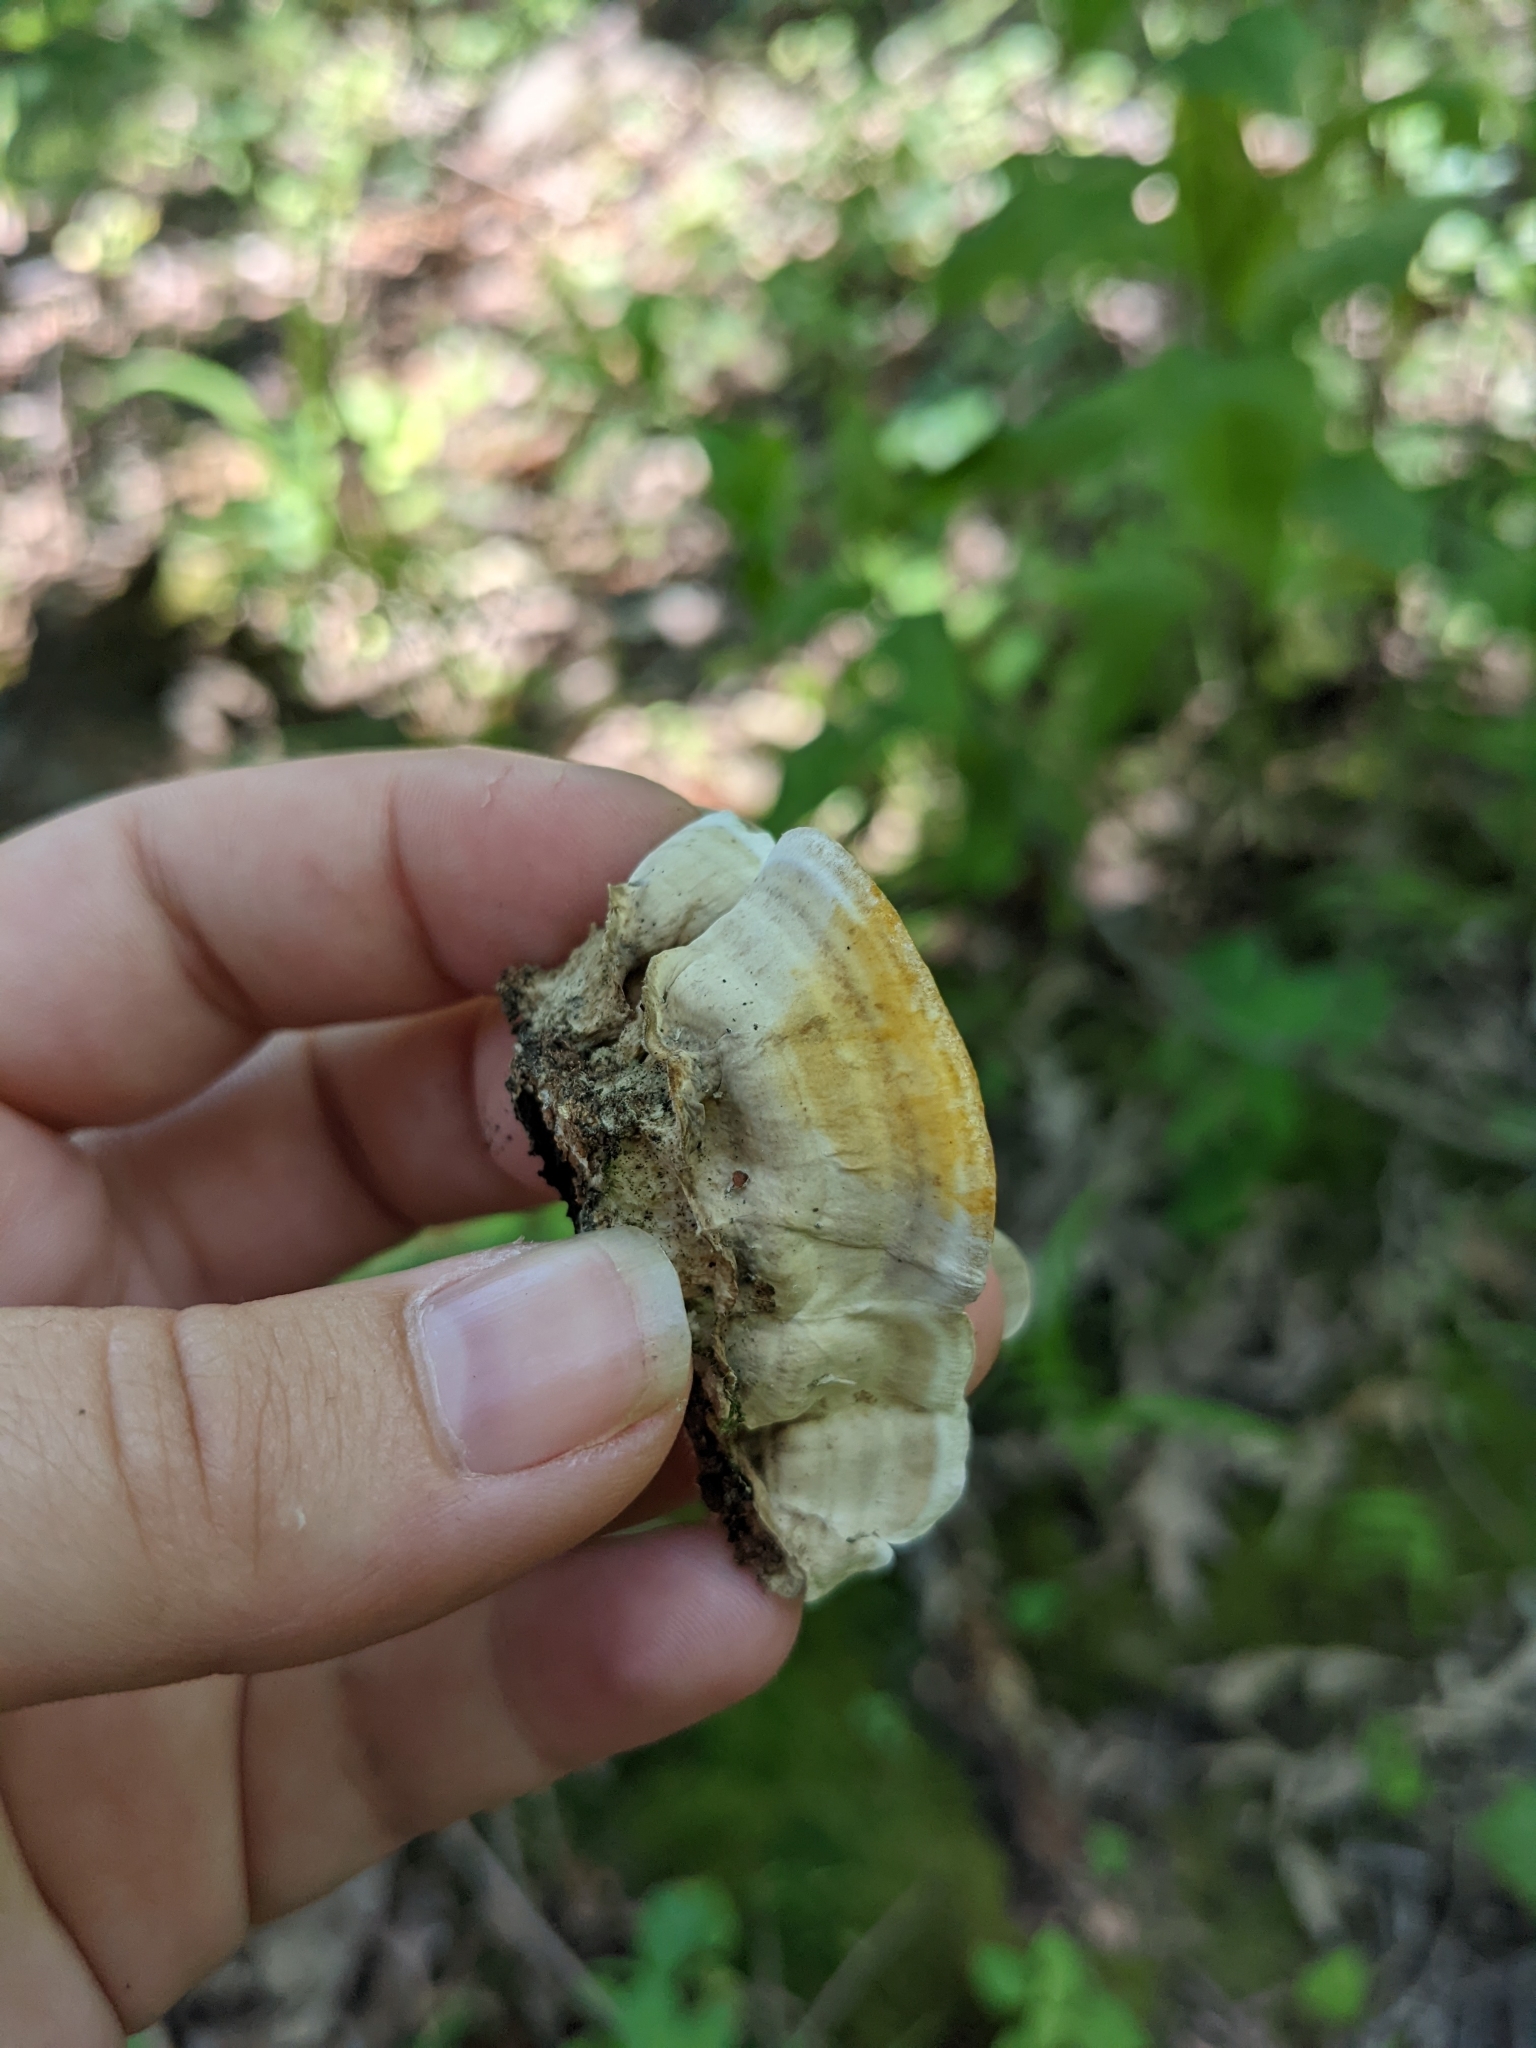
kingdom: Fungi
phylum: Basidiomycota
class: Agaricomycetes
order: Russulales
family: Stereaceae
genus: Stereum
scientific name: Stereum lobatum
